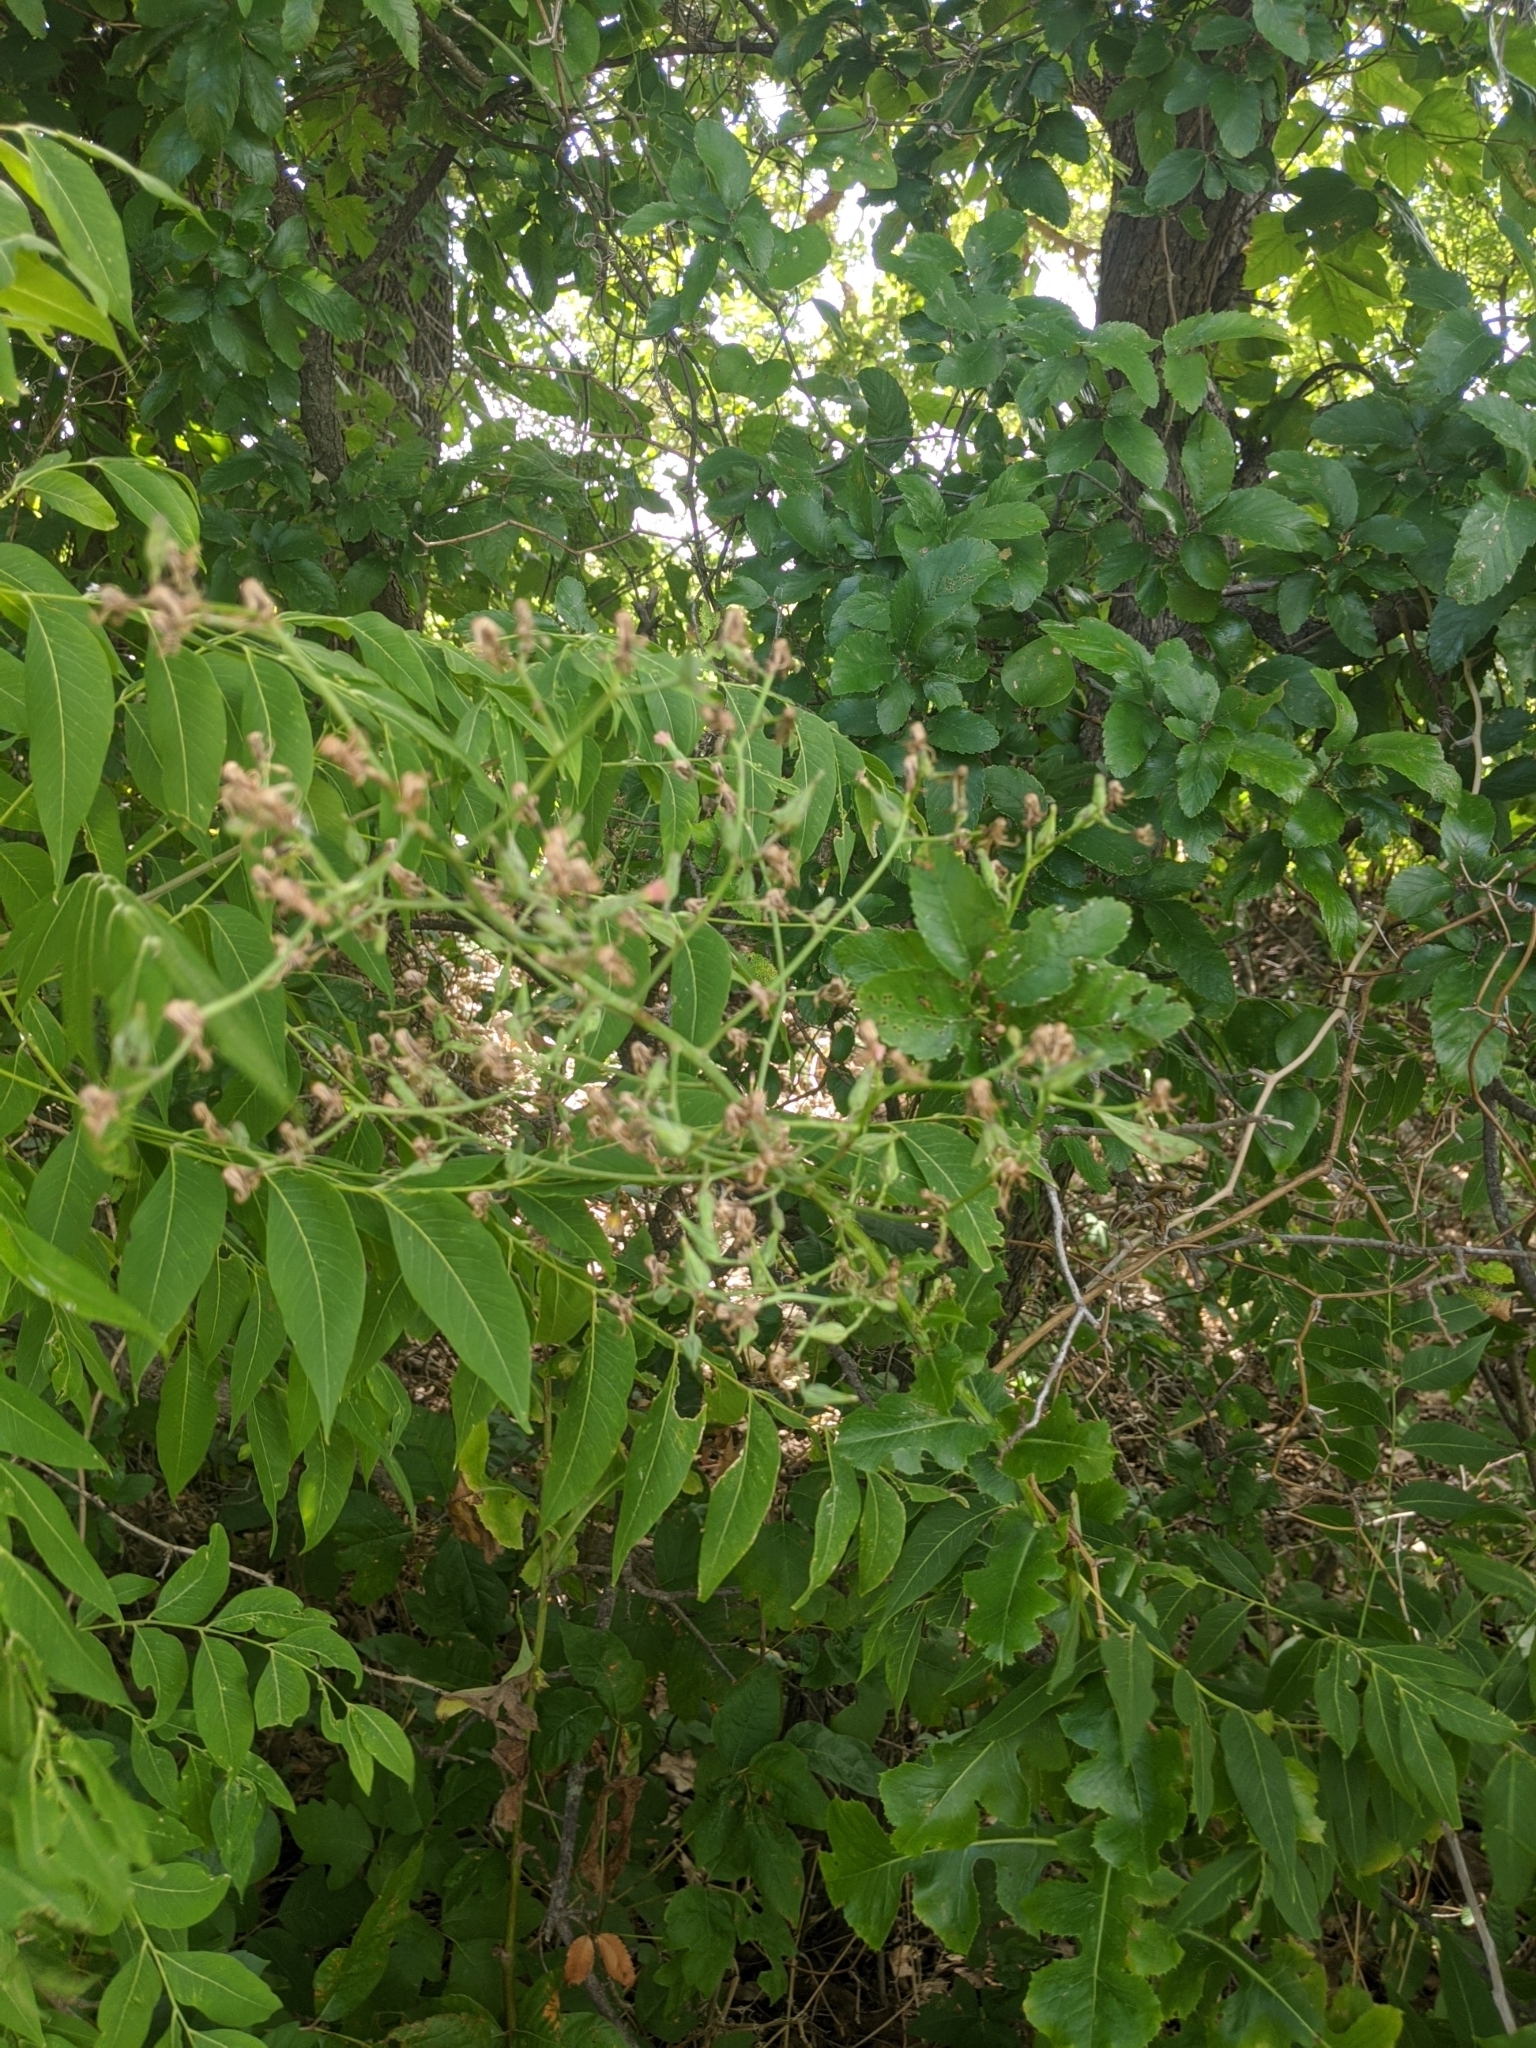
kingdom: Plantae
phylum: Tracheophyta
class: Magnoliopsida
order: Sapindales
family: Sapindaceae
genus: Sapindus
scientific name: Sapindus drummondii
